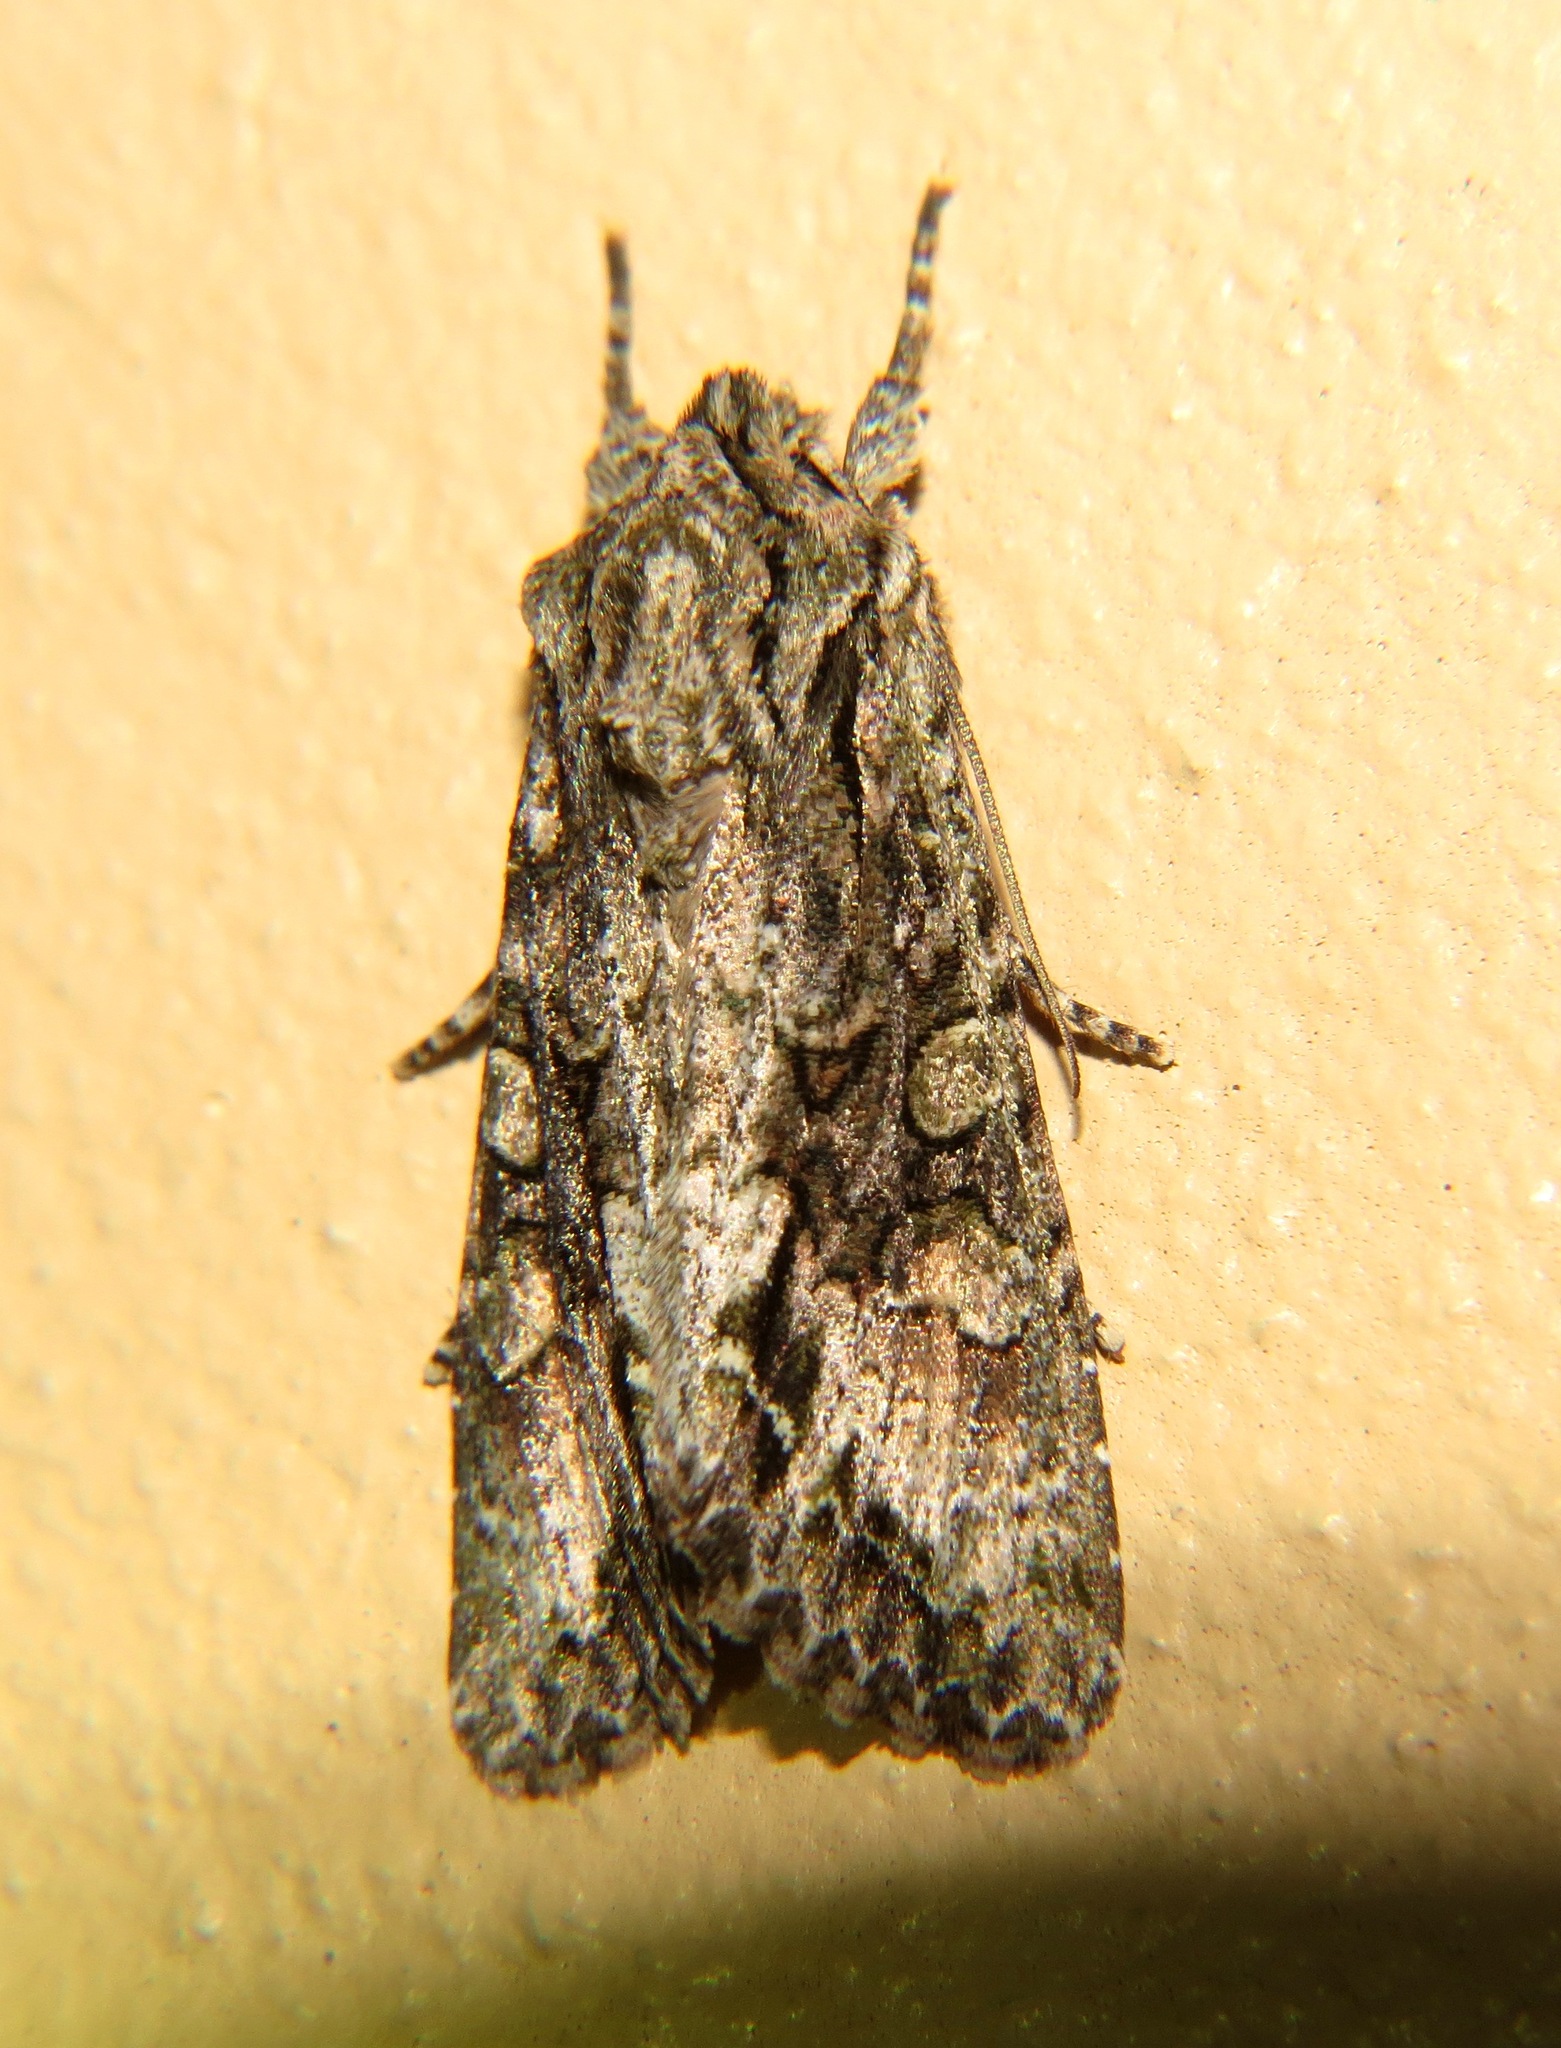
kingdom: Animalia
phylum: Arthropoda
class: Insecta
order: Lepidoptera
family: Noctuidae
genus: Ichneutica
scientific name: Ichneutica mutans
